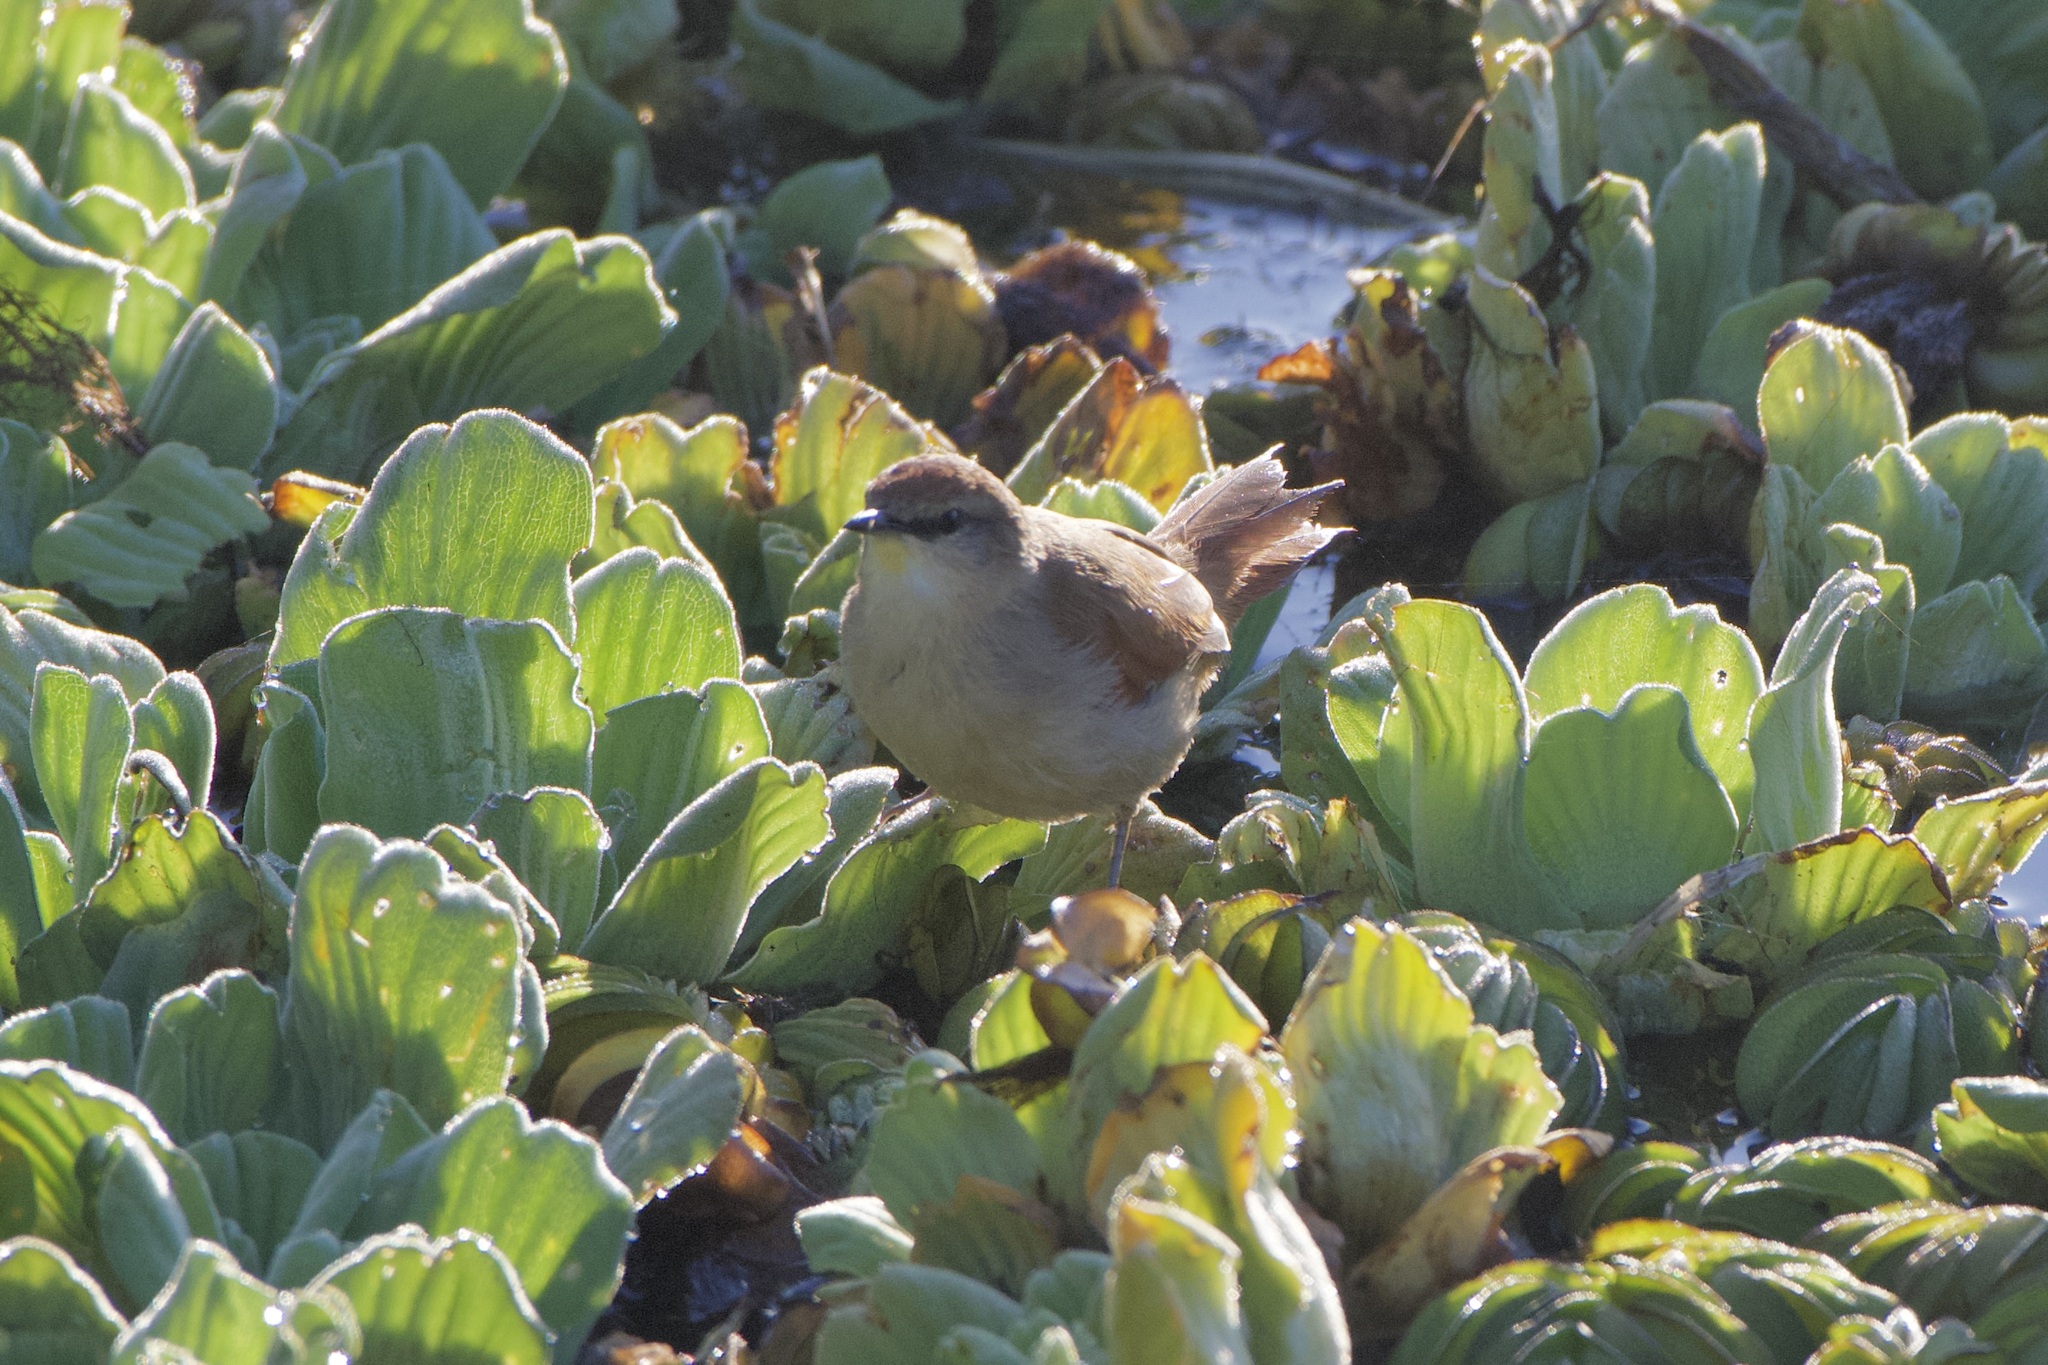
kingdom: Animalia
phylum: Chordata
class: Aves
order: Passeriformes
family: Furnariidae
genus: Certhiaxis
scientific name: Certhiaxis cinnamomeus
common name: Yellow-chinned spinetail
